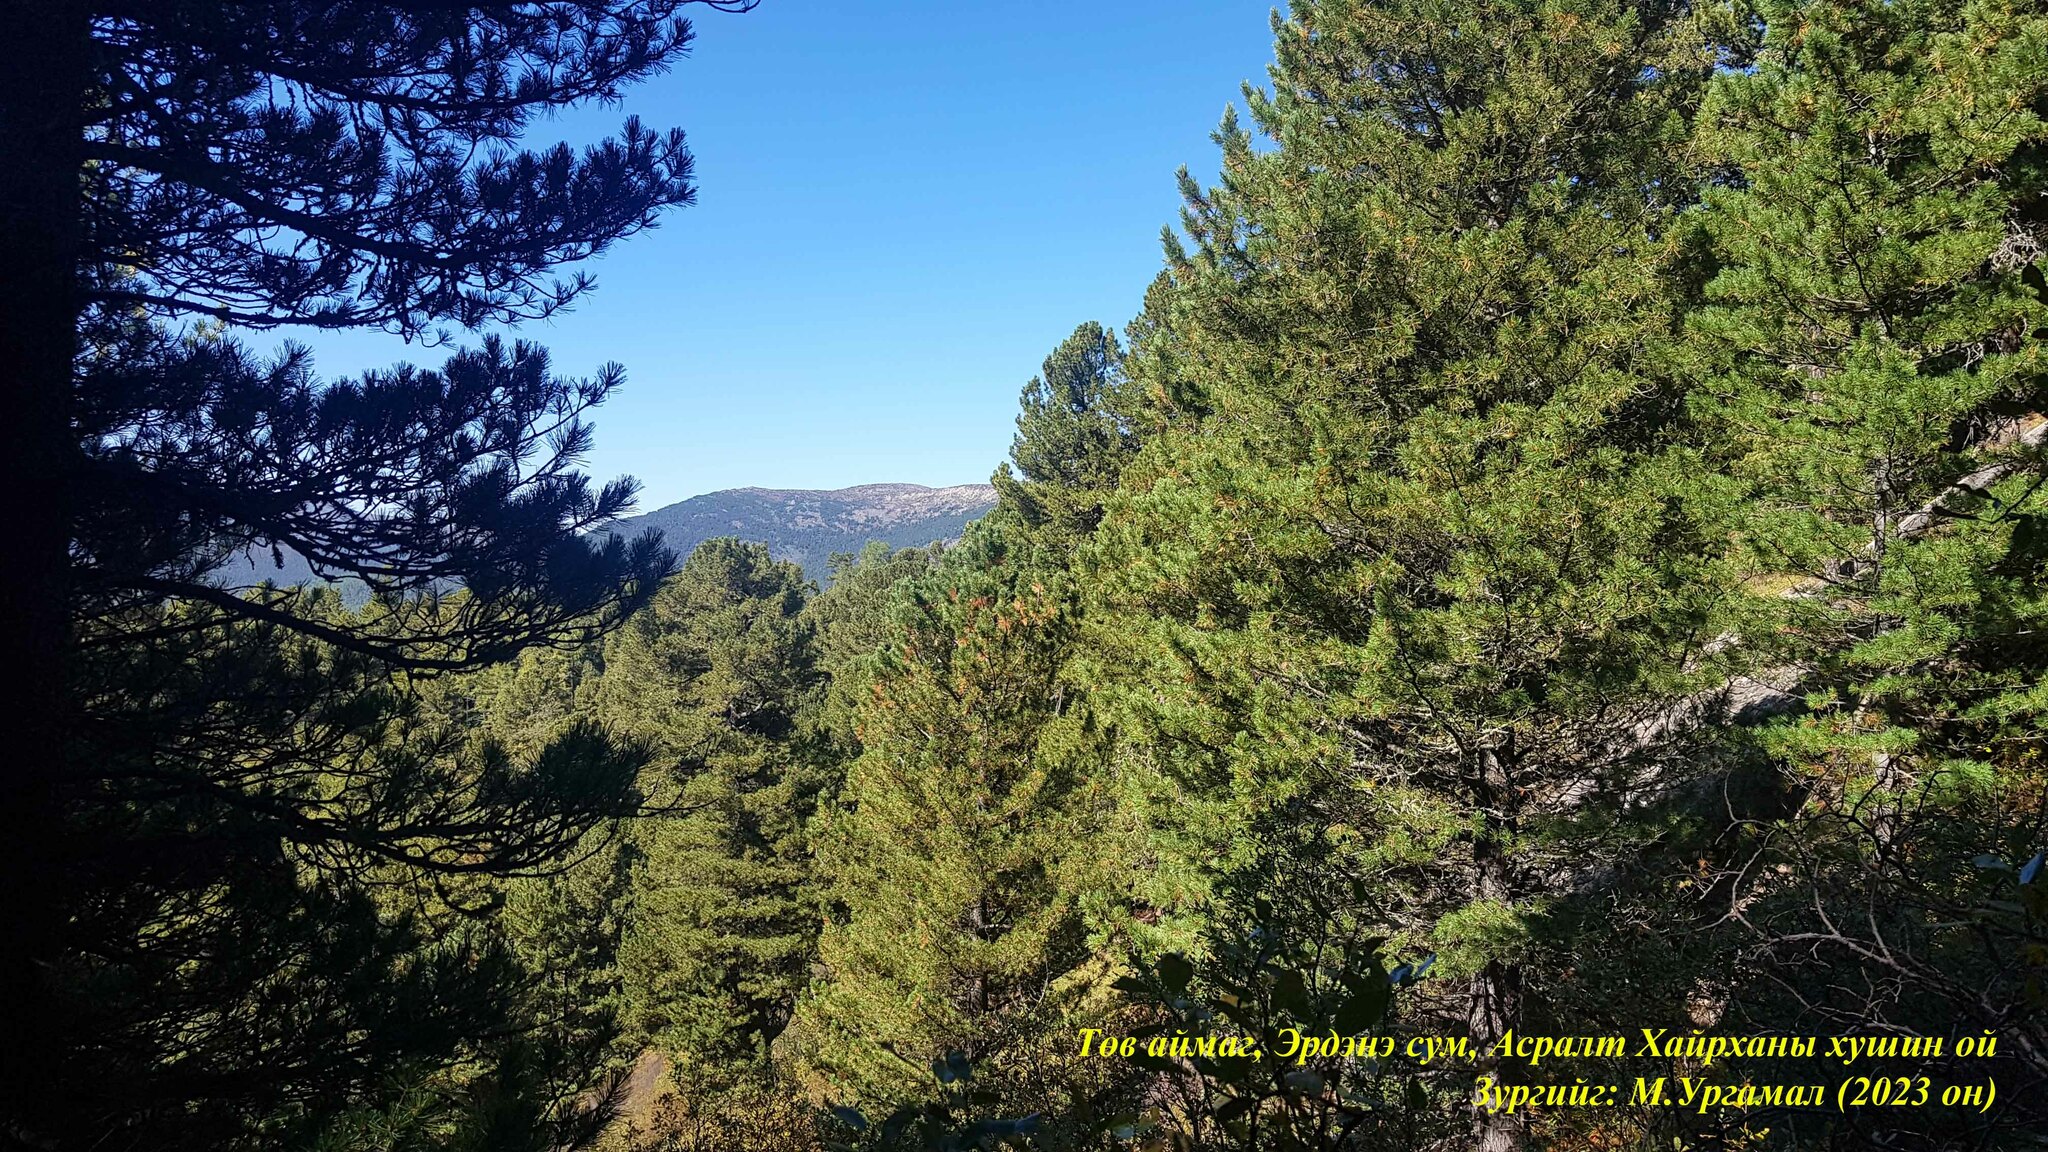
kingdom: Plantae
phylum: Tracheophyta
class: Pinopsida
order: Pinales
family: Pinaceae
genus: Pinus
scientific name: Pinus sibirica
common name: Siberian pine
